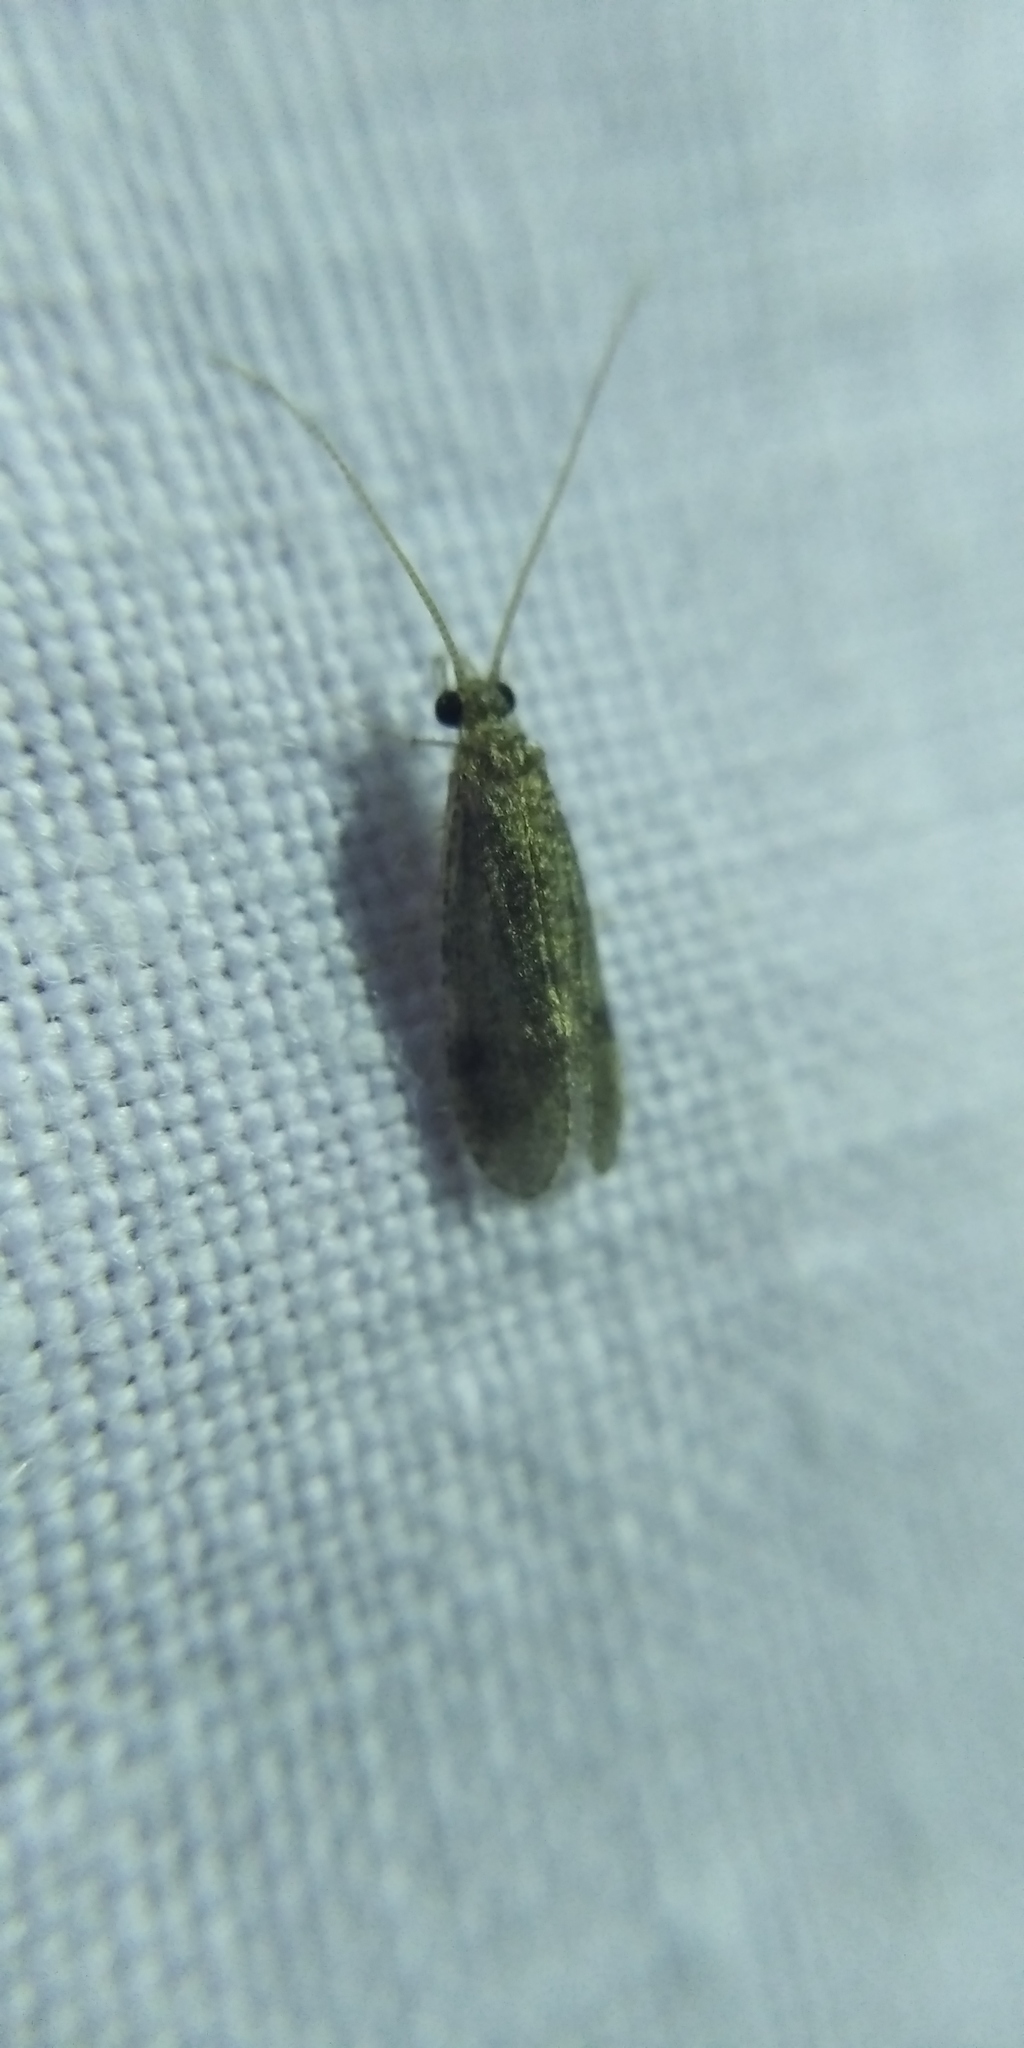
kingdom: Animalia
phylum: Arthropoda
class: Insecta
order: Trichoptera
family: Ecnomidae
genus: Ecnomus
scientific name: Ecnomus tenellus
